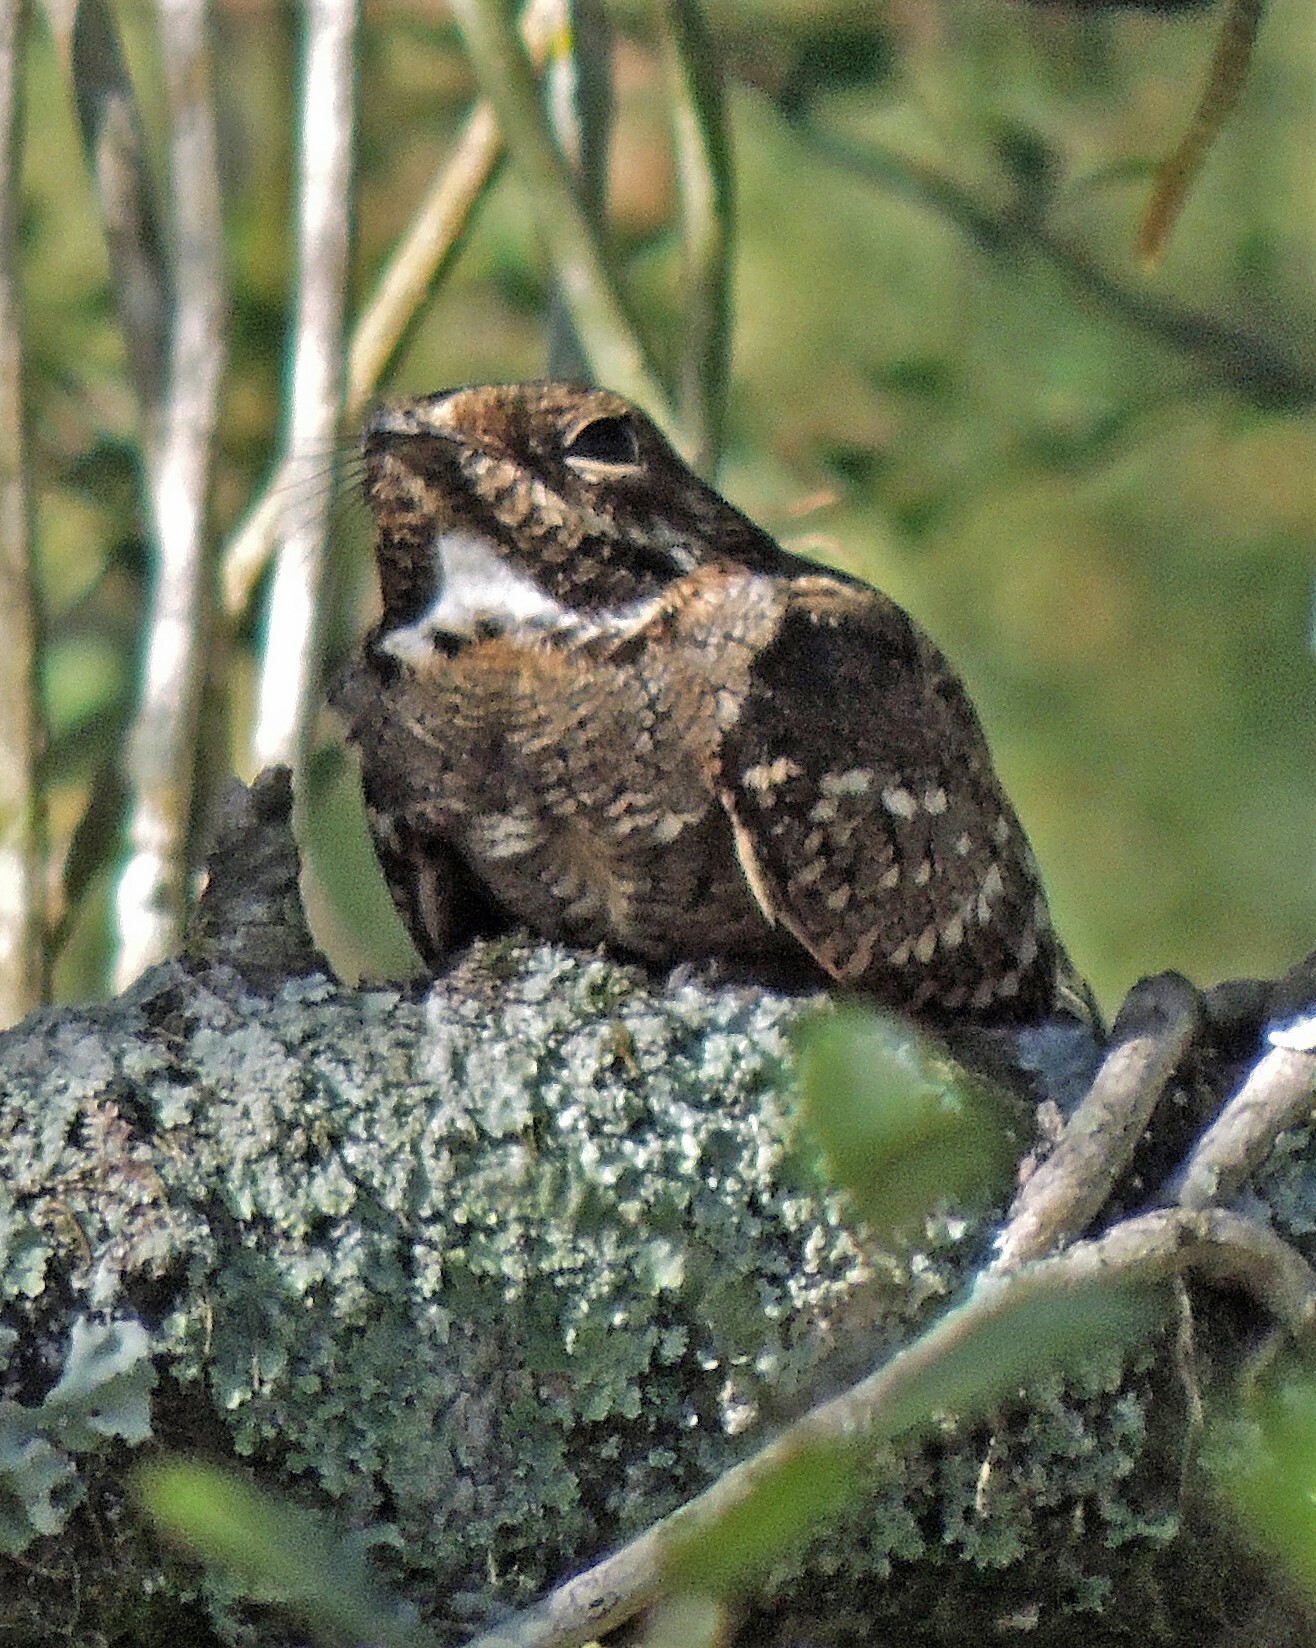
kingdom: Animalia
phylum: Chordata
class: Aves
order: Caprimulgiformes
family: Caprimulgidae
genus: Setopagis
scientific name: Setopagis parvula
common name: Little nightjar
